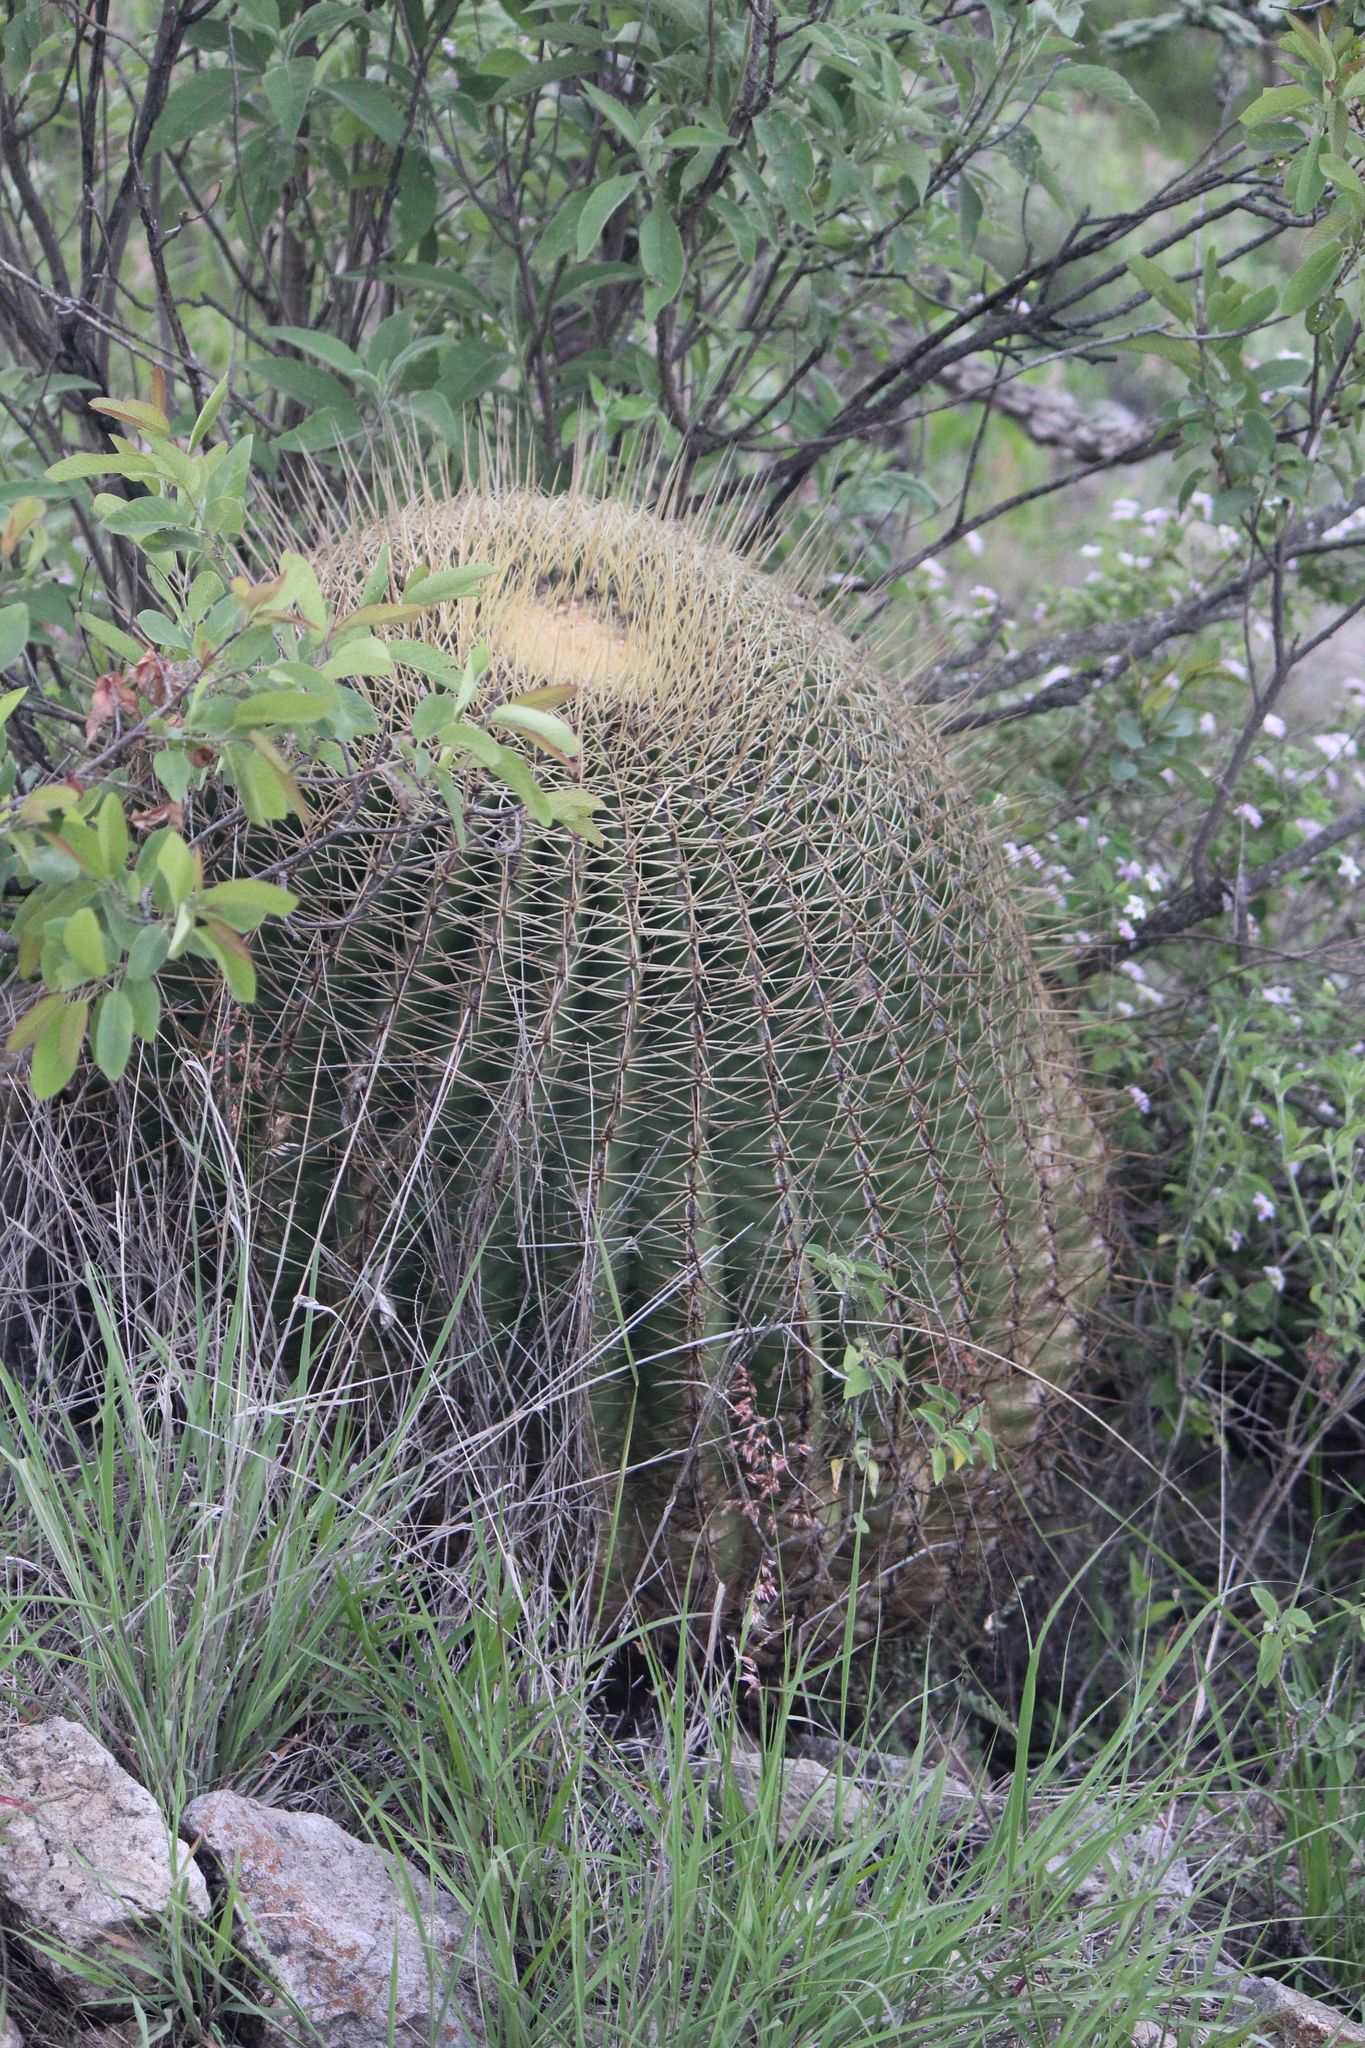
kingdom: Plantae
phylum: Tracheophyta
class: Magnoliopsida
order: Caryophyllales
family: Cactaceae
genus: Bisnaga
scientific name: Bisnaga histrix
